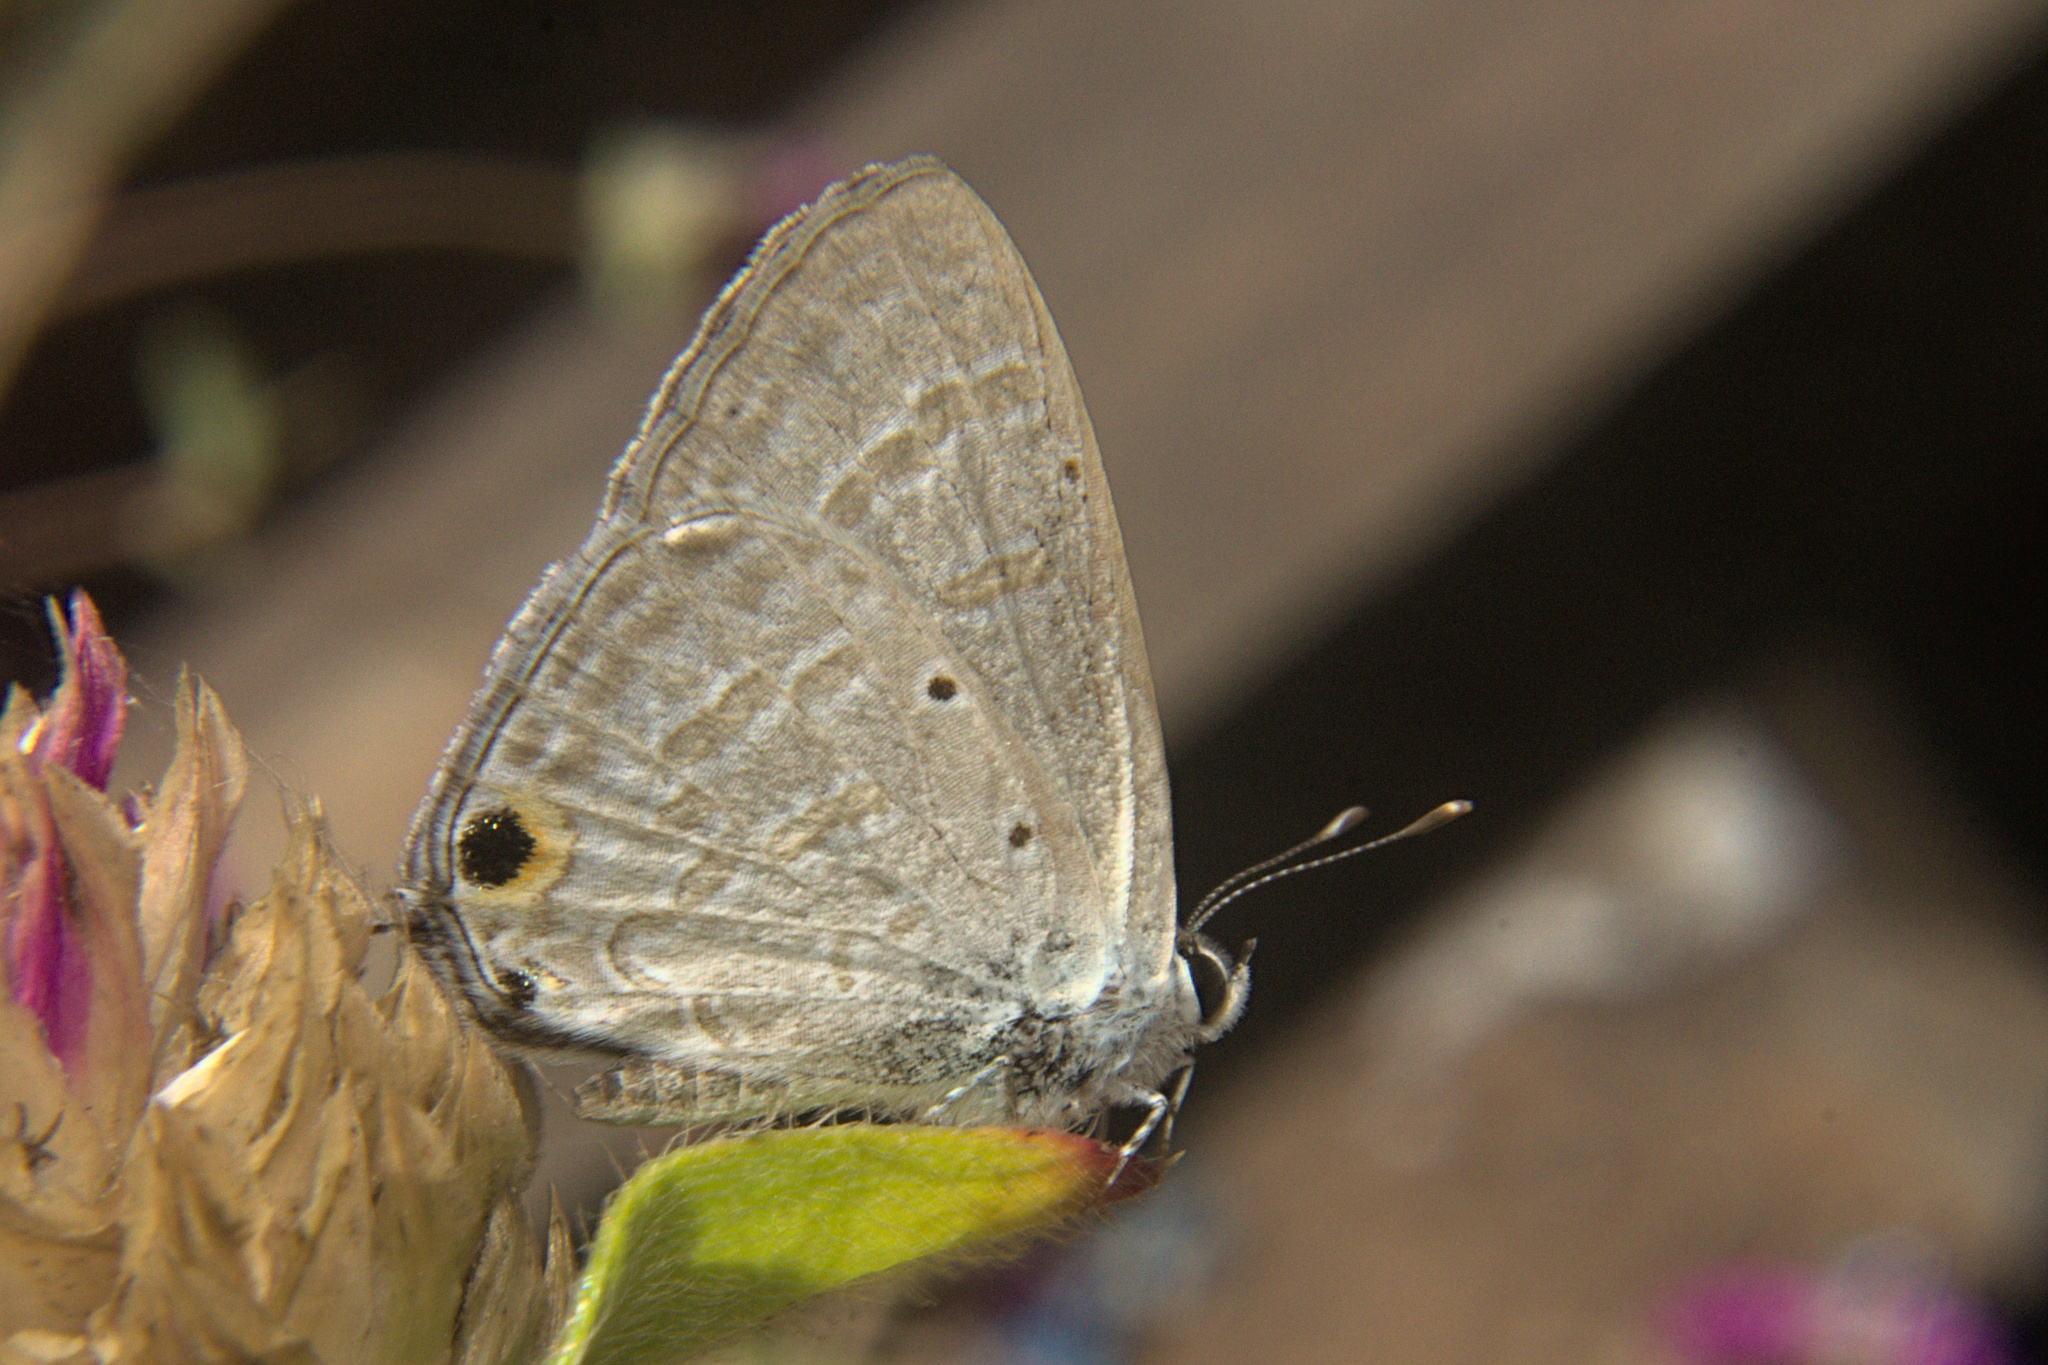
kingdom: Animalia
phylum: Arthropoda
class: Insecta
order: Lepidoptera
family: Lycaenidae
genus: Jamides
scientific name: Jamides celeno
